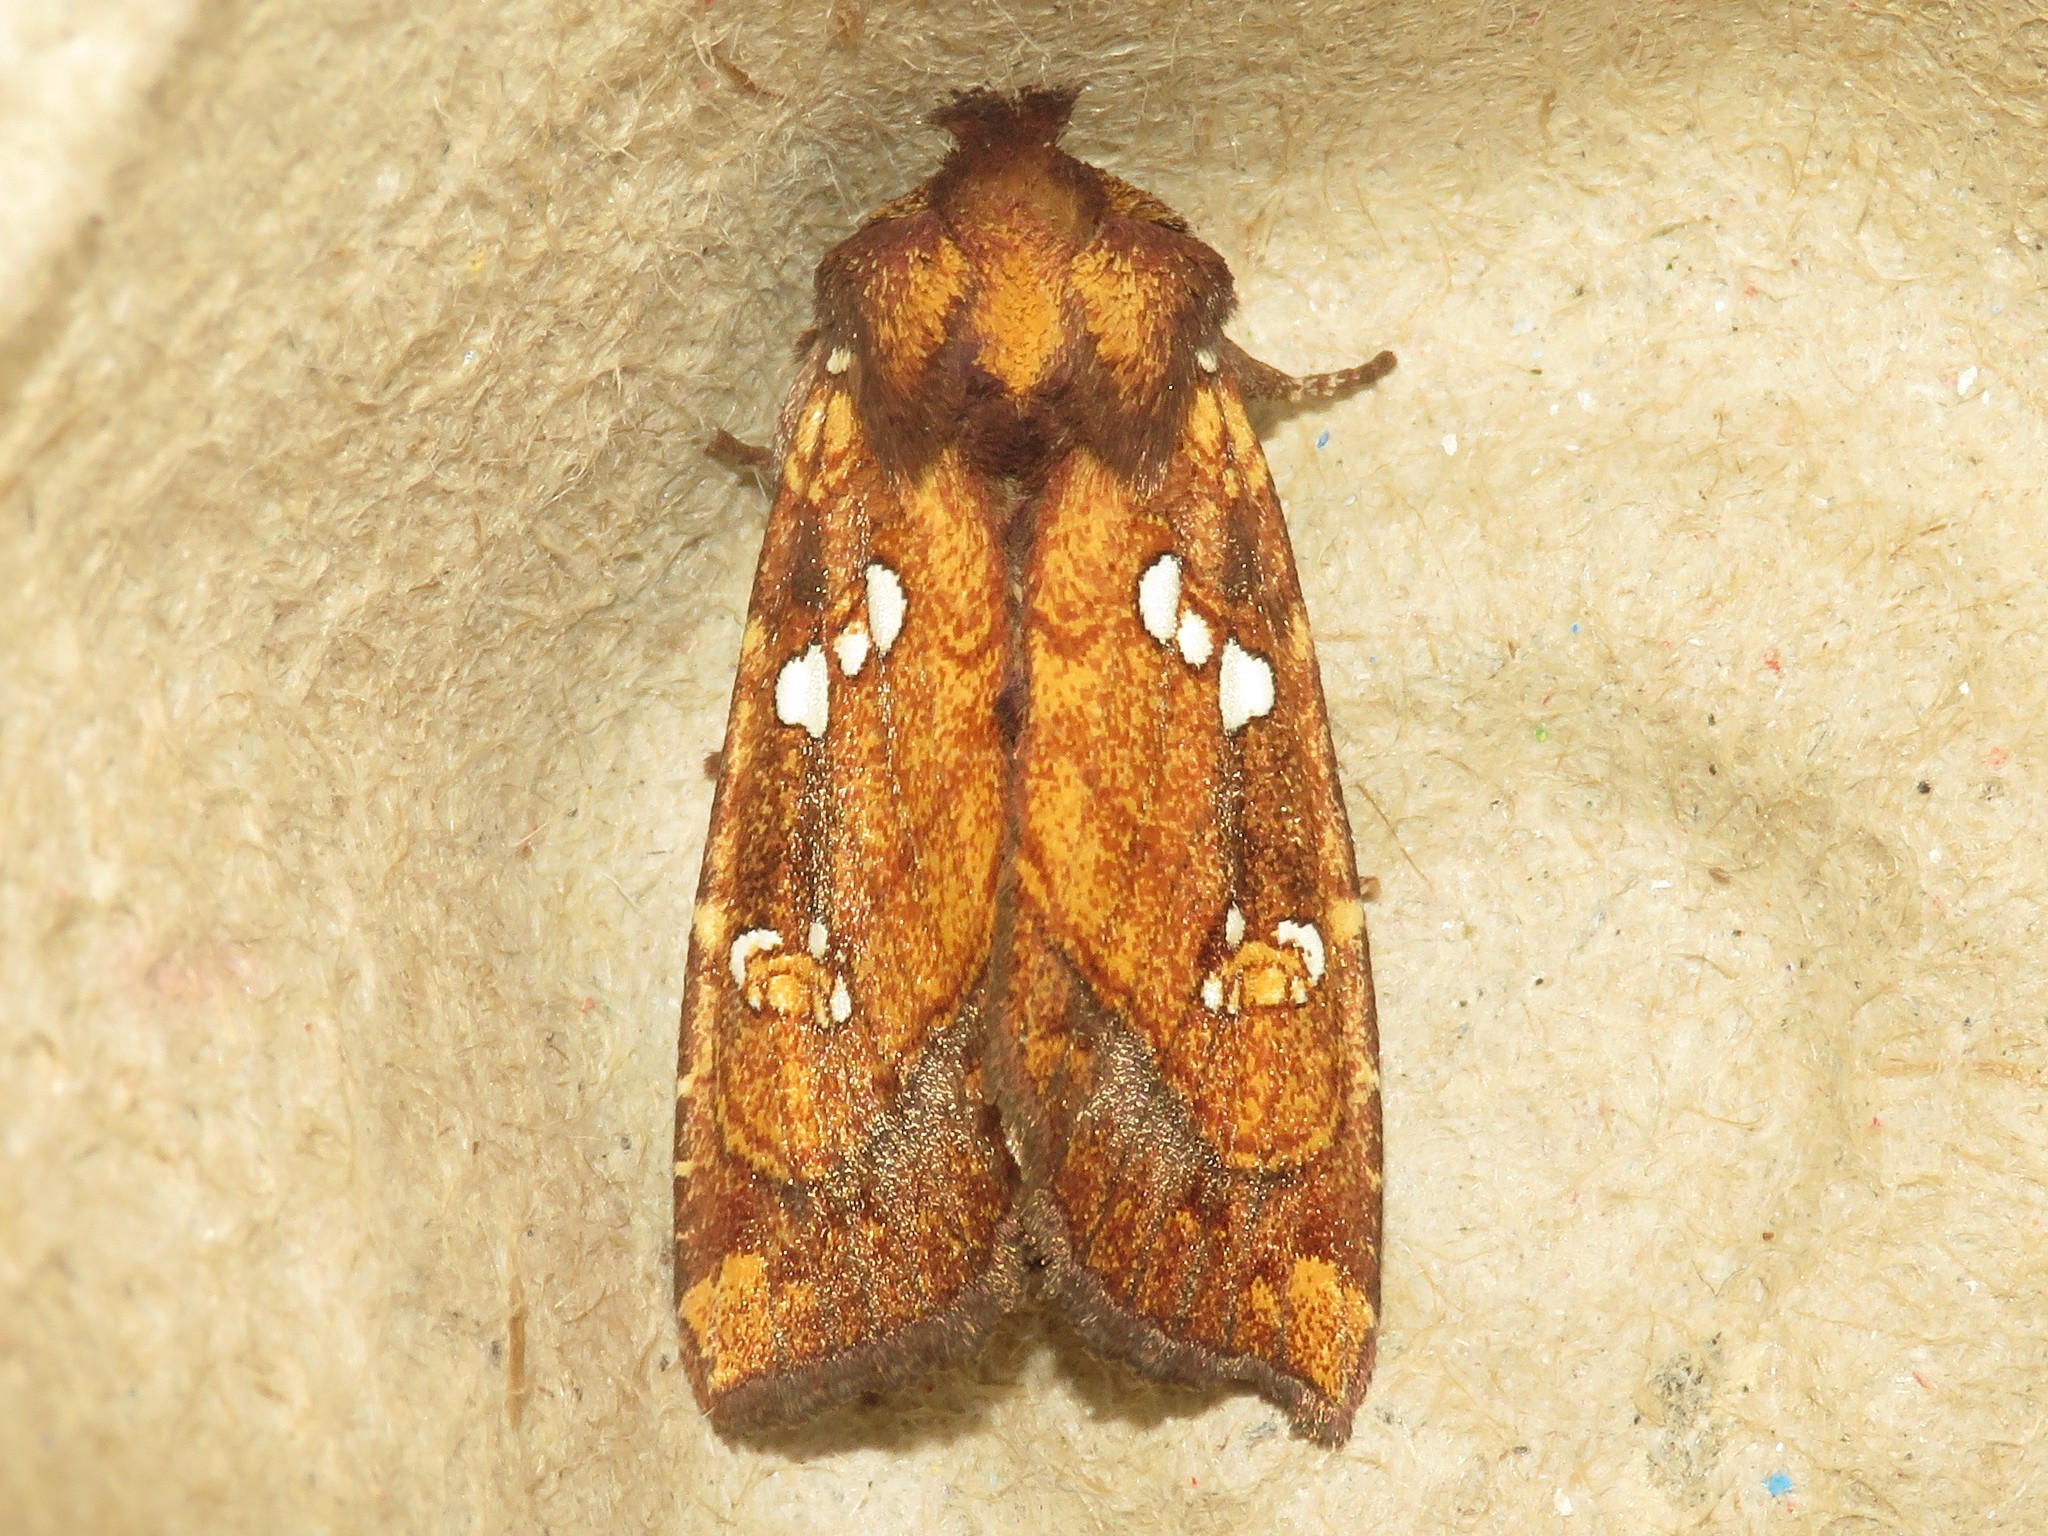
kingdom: Animalia
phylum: Arthropoda
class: Insecta
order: Lepidoptera
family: Noctuidae
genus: Papaipema
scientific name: Papaipema arctivorens
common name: Northern burdock borer moth
